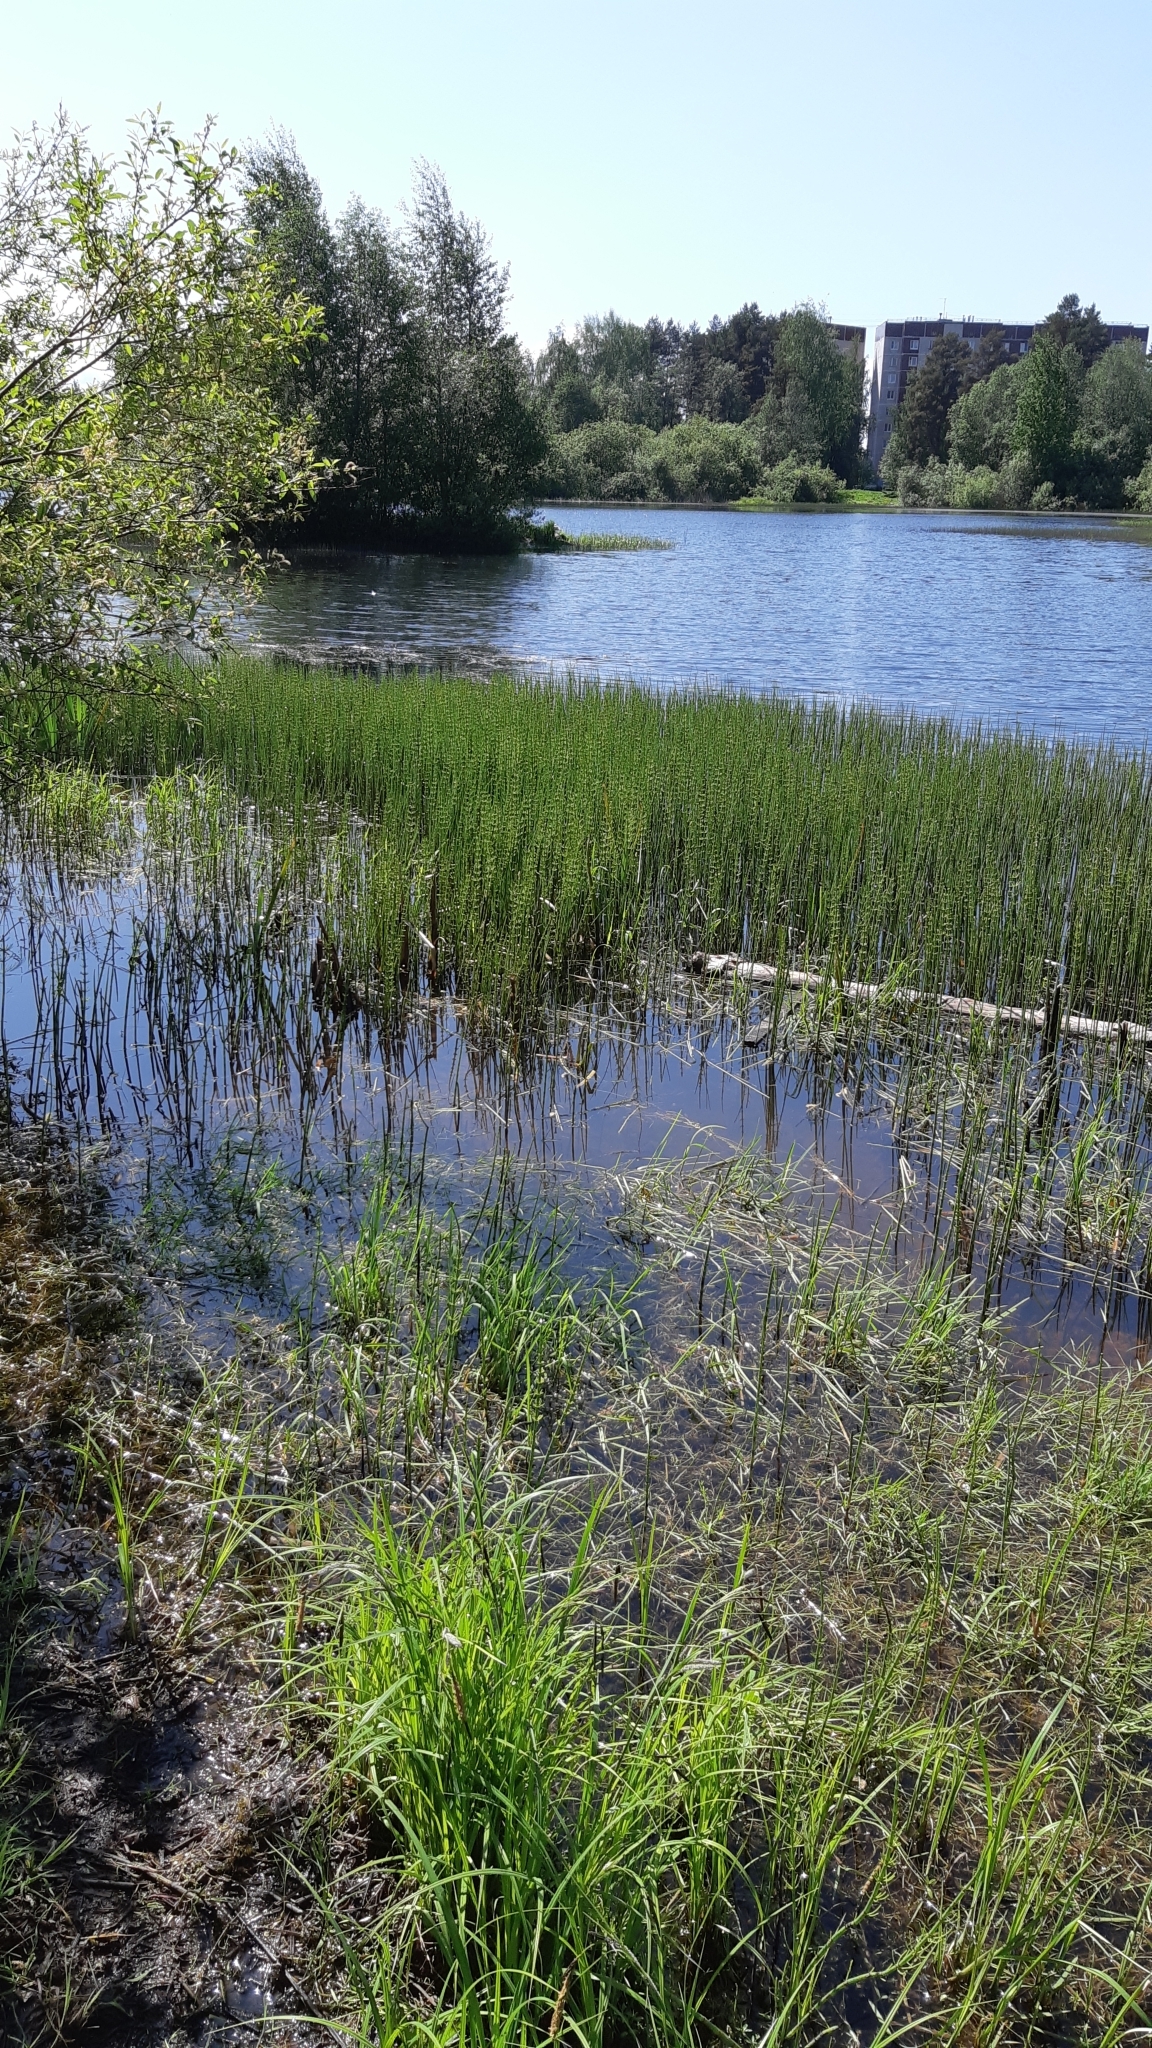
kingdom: Plantae
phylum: Tracheophyta
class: Polypodiopsida
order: Equisetales
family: Equisetaceae
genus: Equisetum
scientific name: Equisetum fluviatile
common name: Water horsetail
